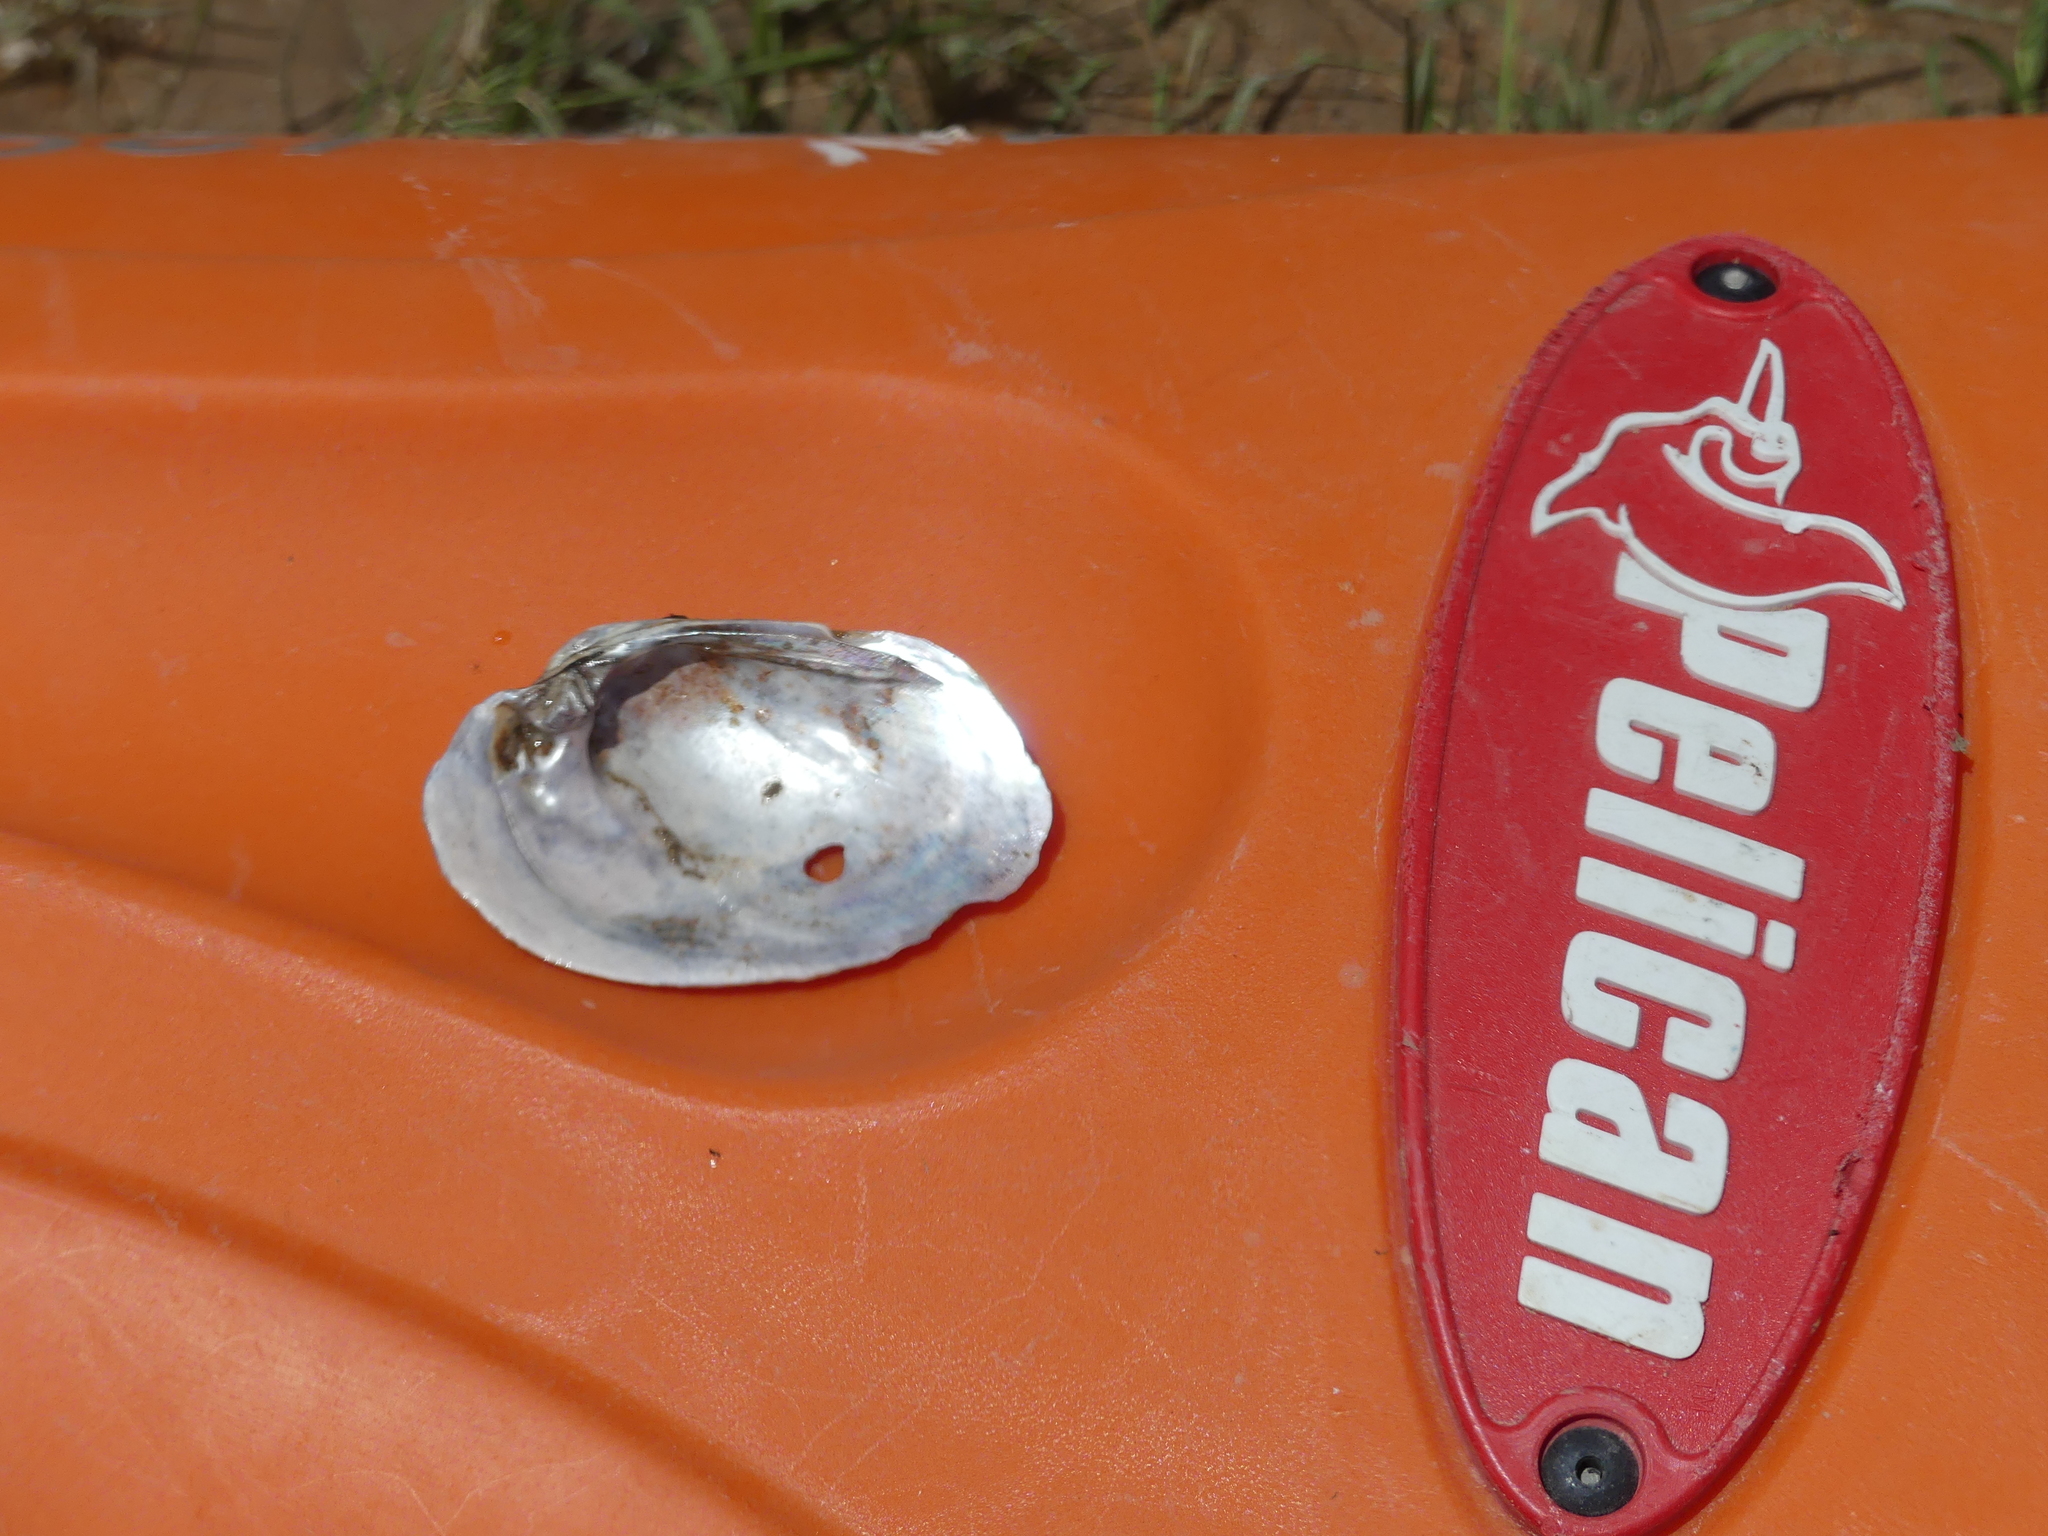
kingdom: Animalia
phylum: Mollusca
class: Bivalvia
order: Unionida
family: Unionidae
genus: Cyrtonaias
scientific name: Cyrtonaias tampicoensis
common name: Tampico pearlymussel
